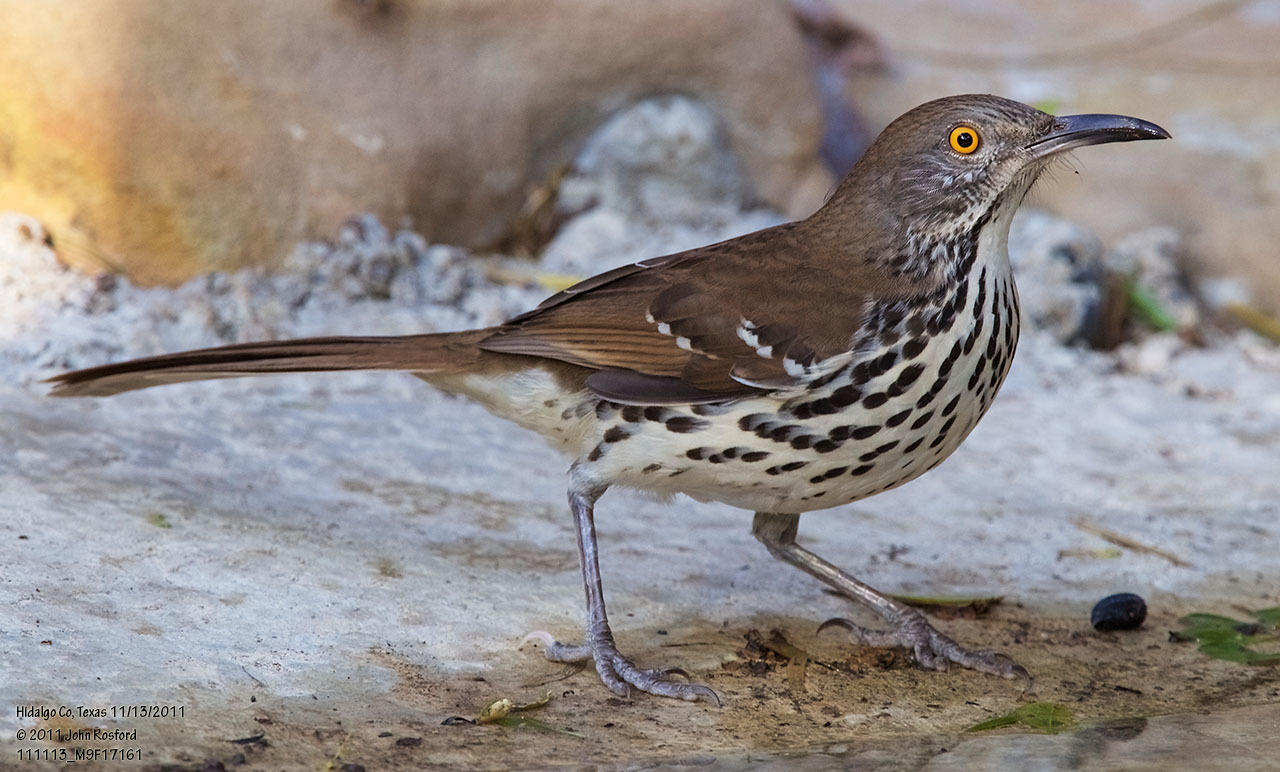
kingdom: Animalia
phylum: Chordata
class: Aves
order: Passeriformes
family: Mimidae
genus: Toxostoma
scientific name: Toxostoma longirostre
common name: Long-billed thrasher
